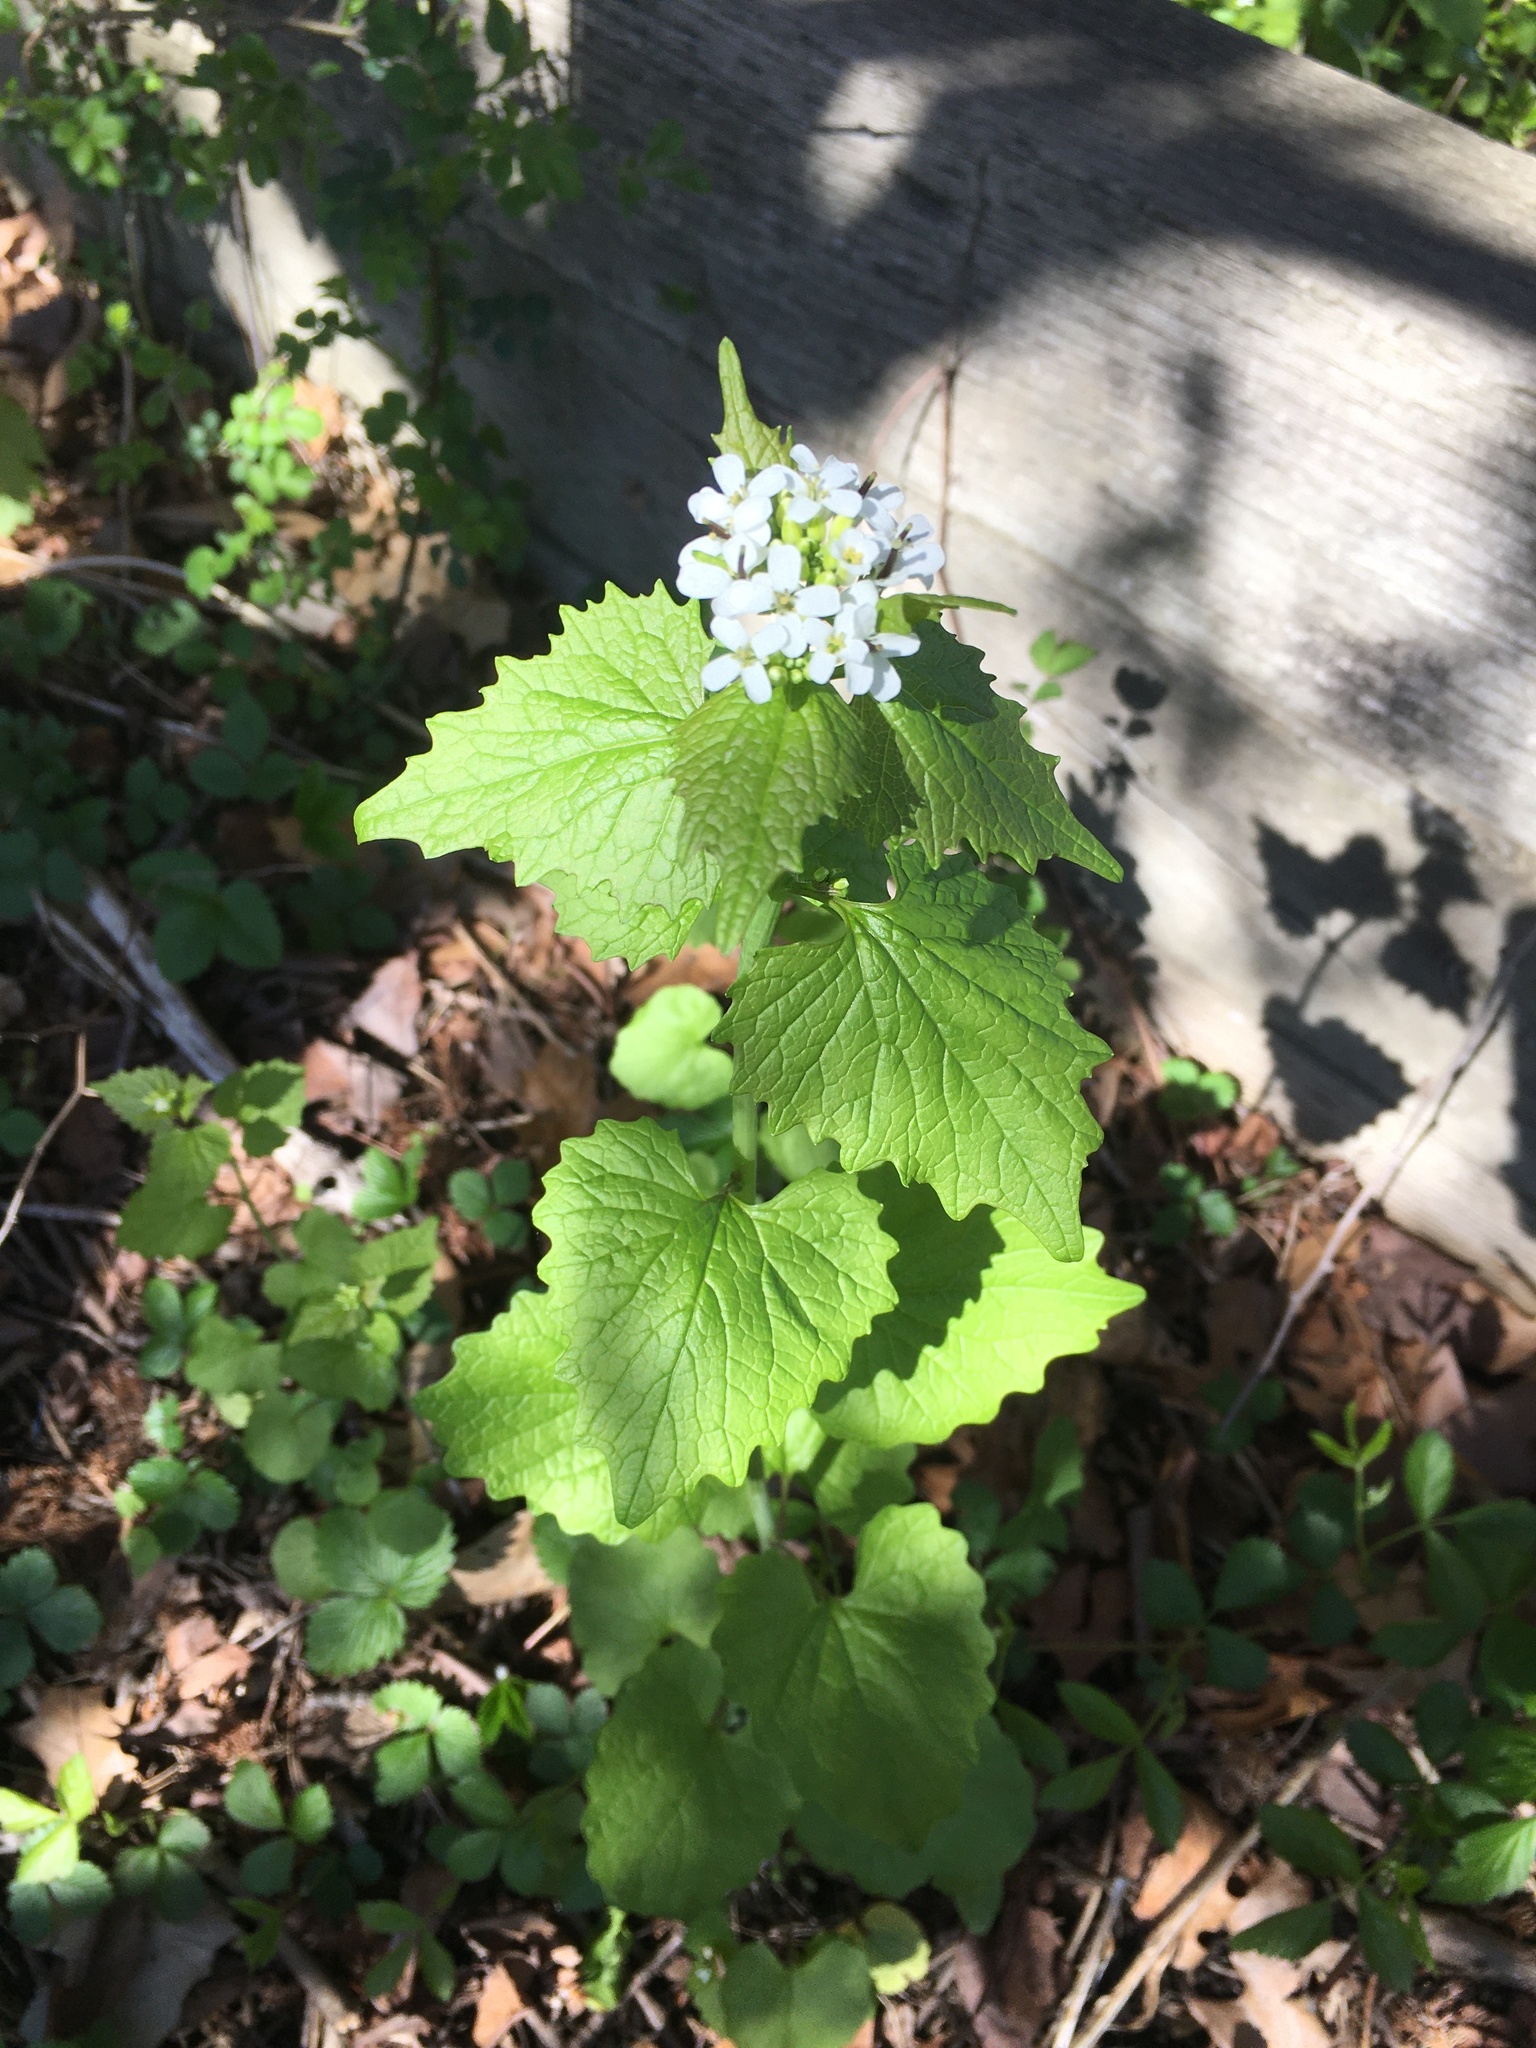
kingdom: Plantae
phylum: Tracheophyta
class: Magnoliopsida
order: Brassicales
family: Brassicaceae
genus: Alliaria
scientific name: Alliaria petiolata
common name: Garlic mustard
